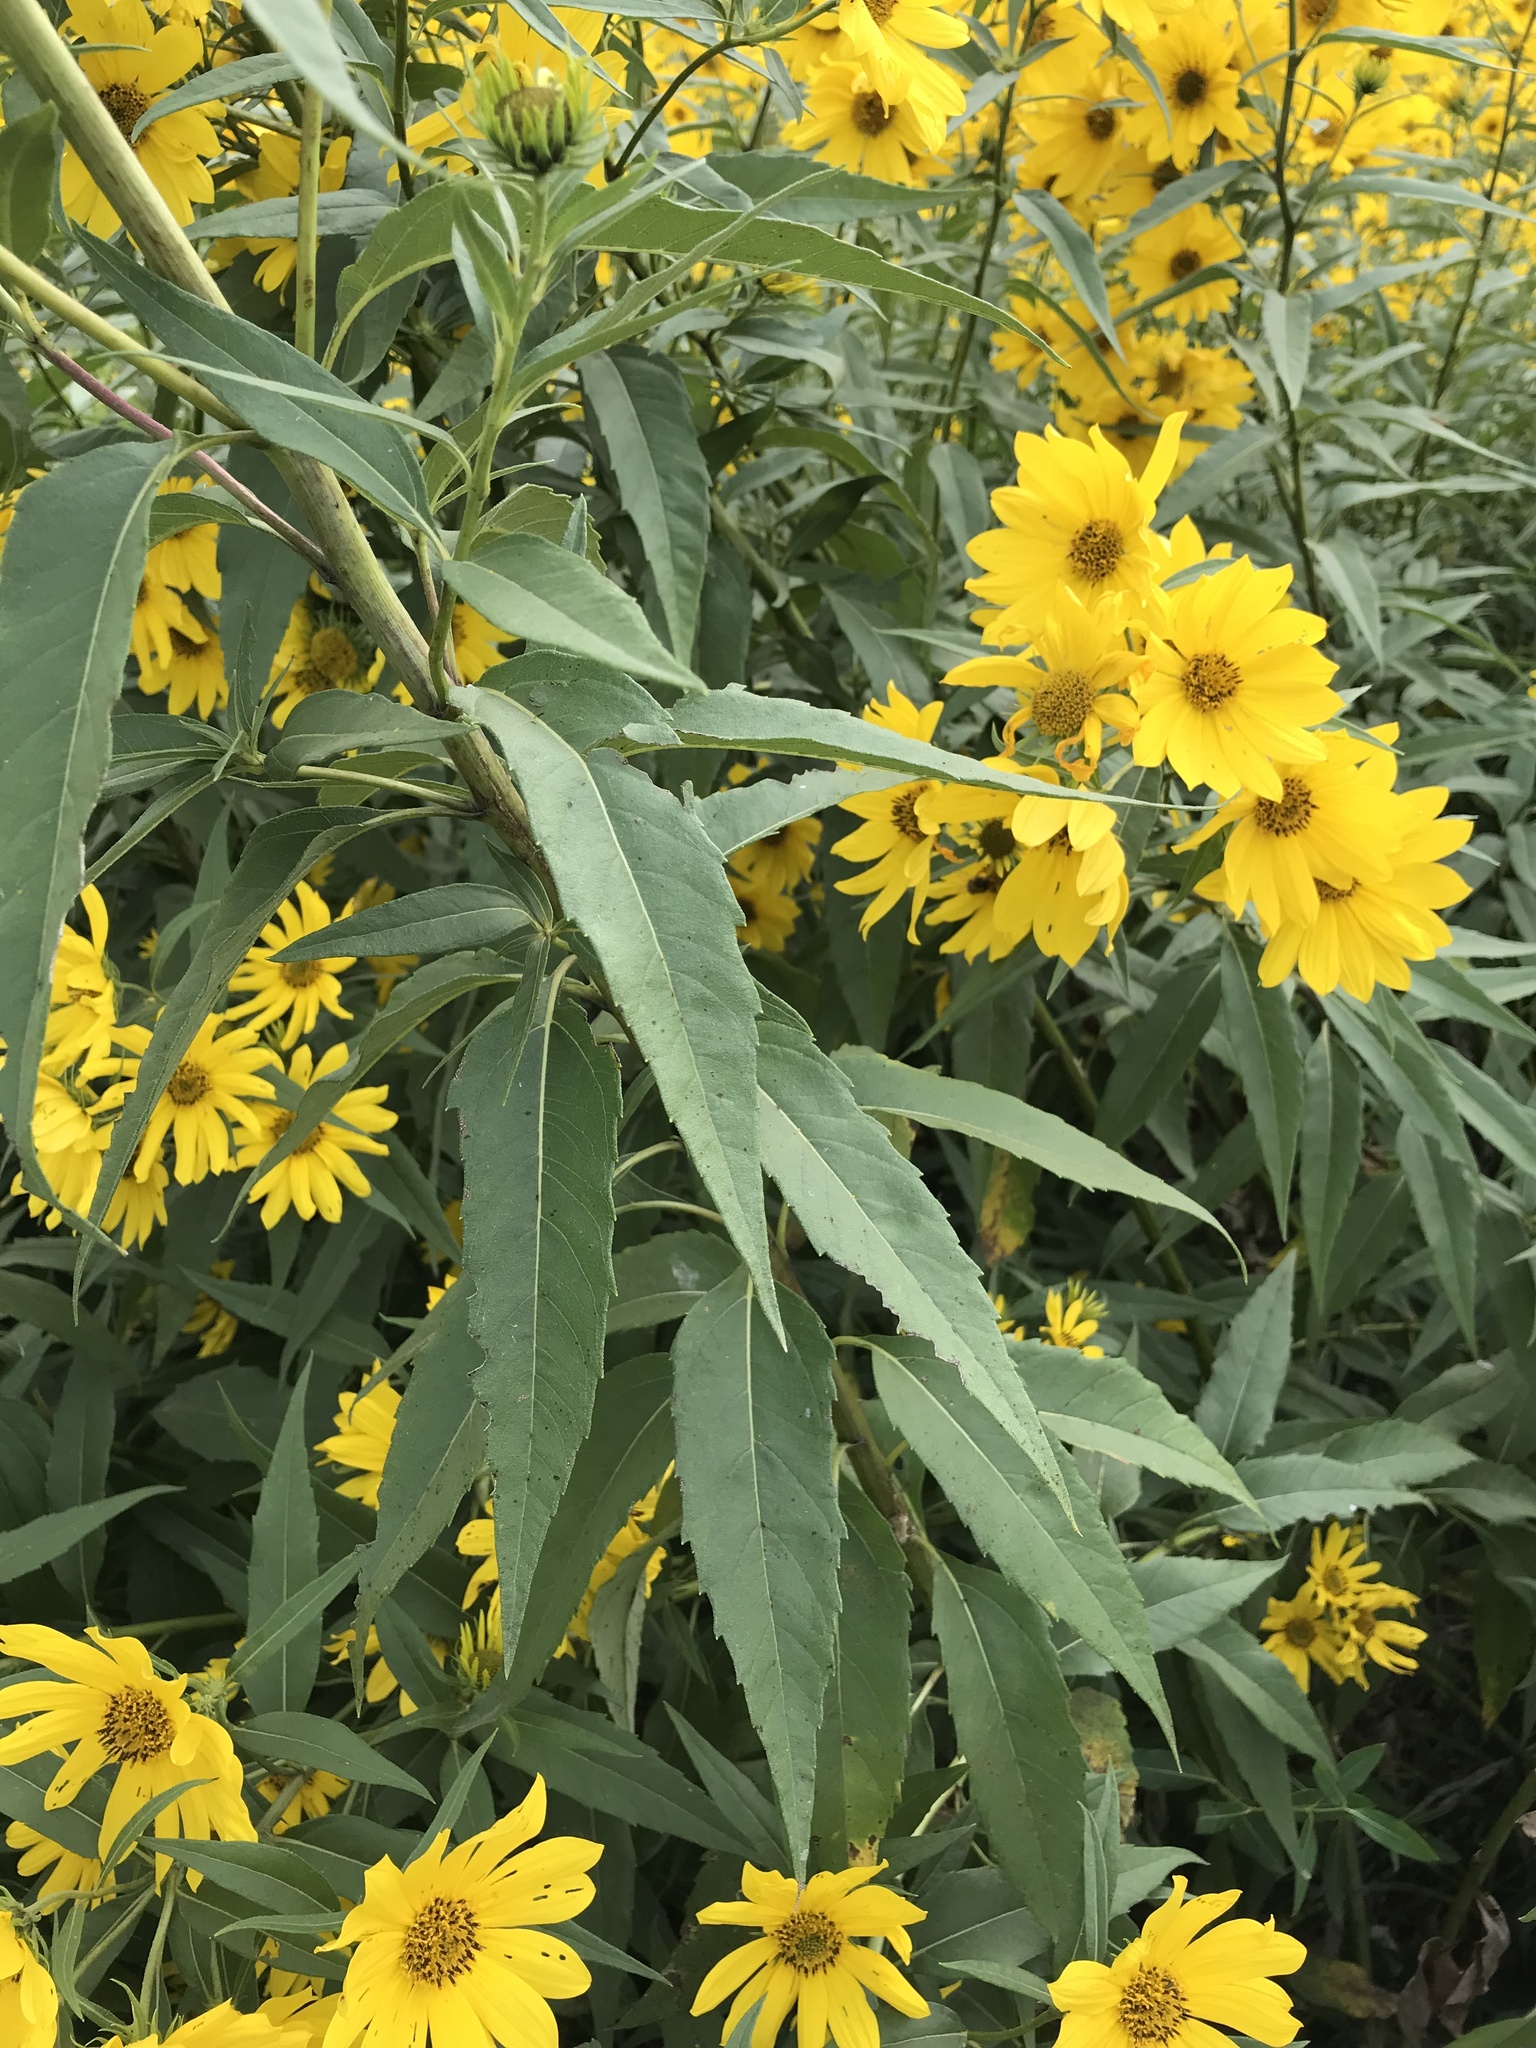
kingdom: Plantae
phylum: Tracheophyta
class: Magnoliopsida
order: Asterales
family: Asteraceae
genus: Helianthus
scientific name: Helianthus grosseserratus
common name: Sawtooth sunflower
